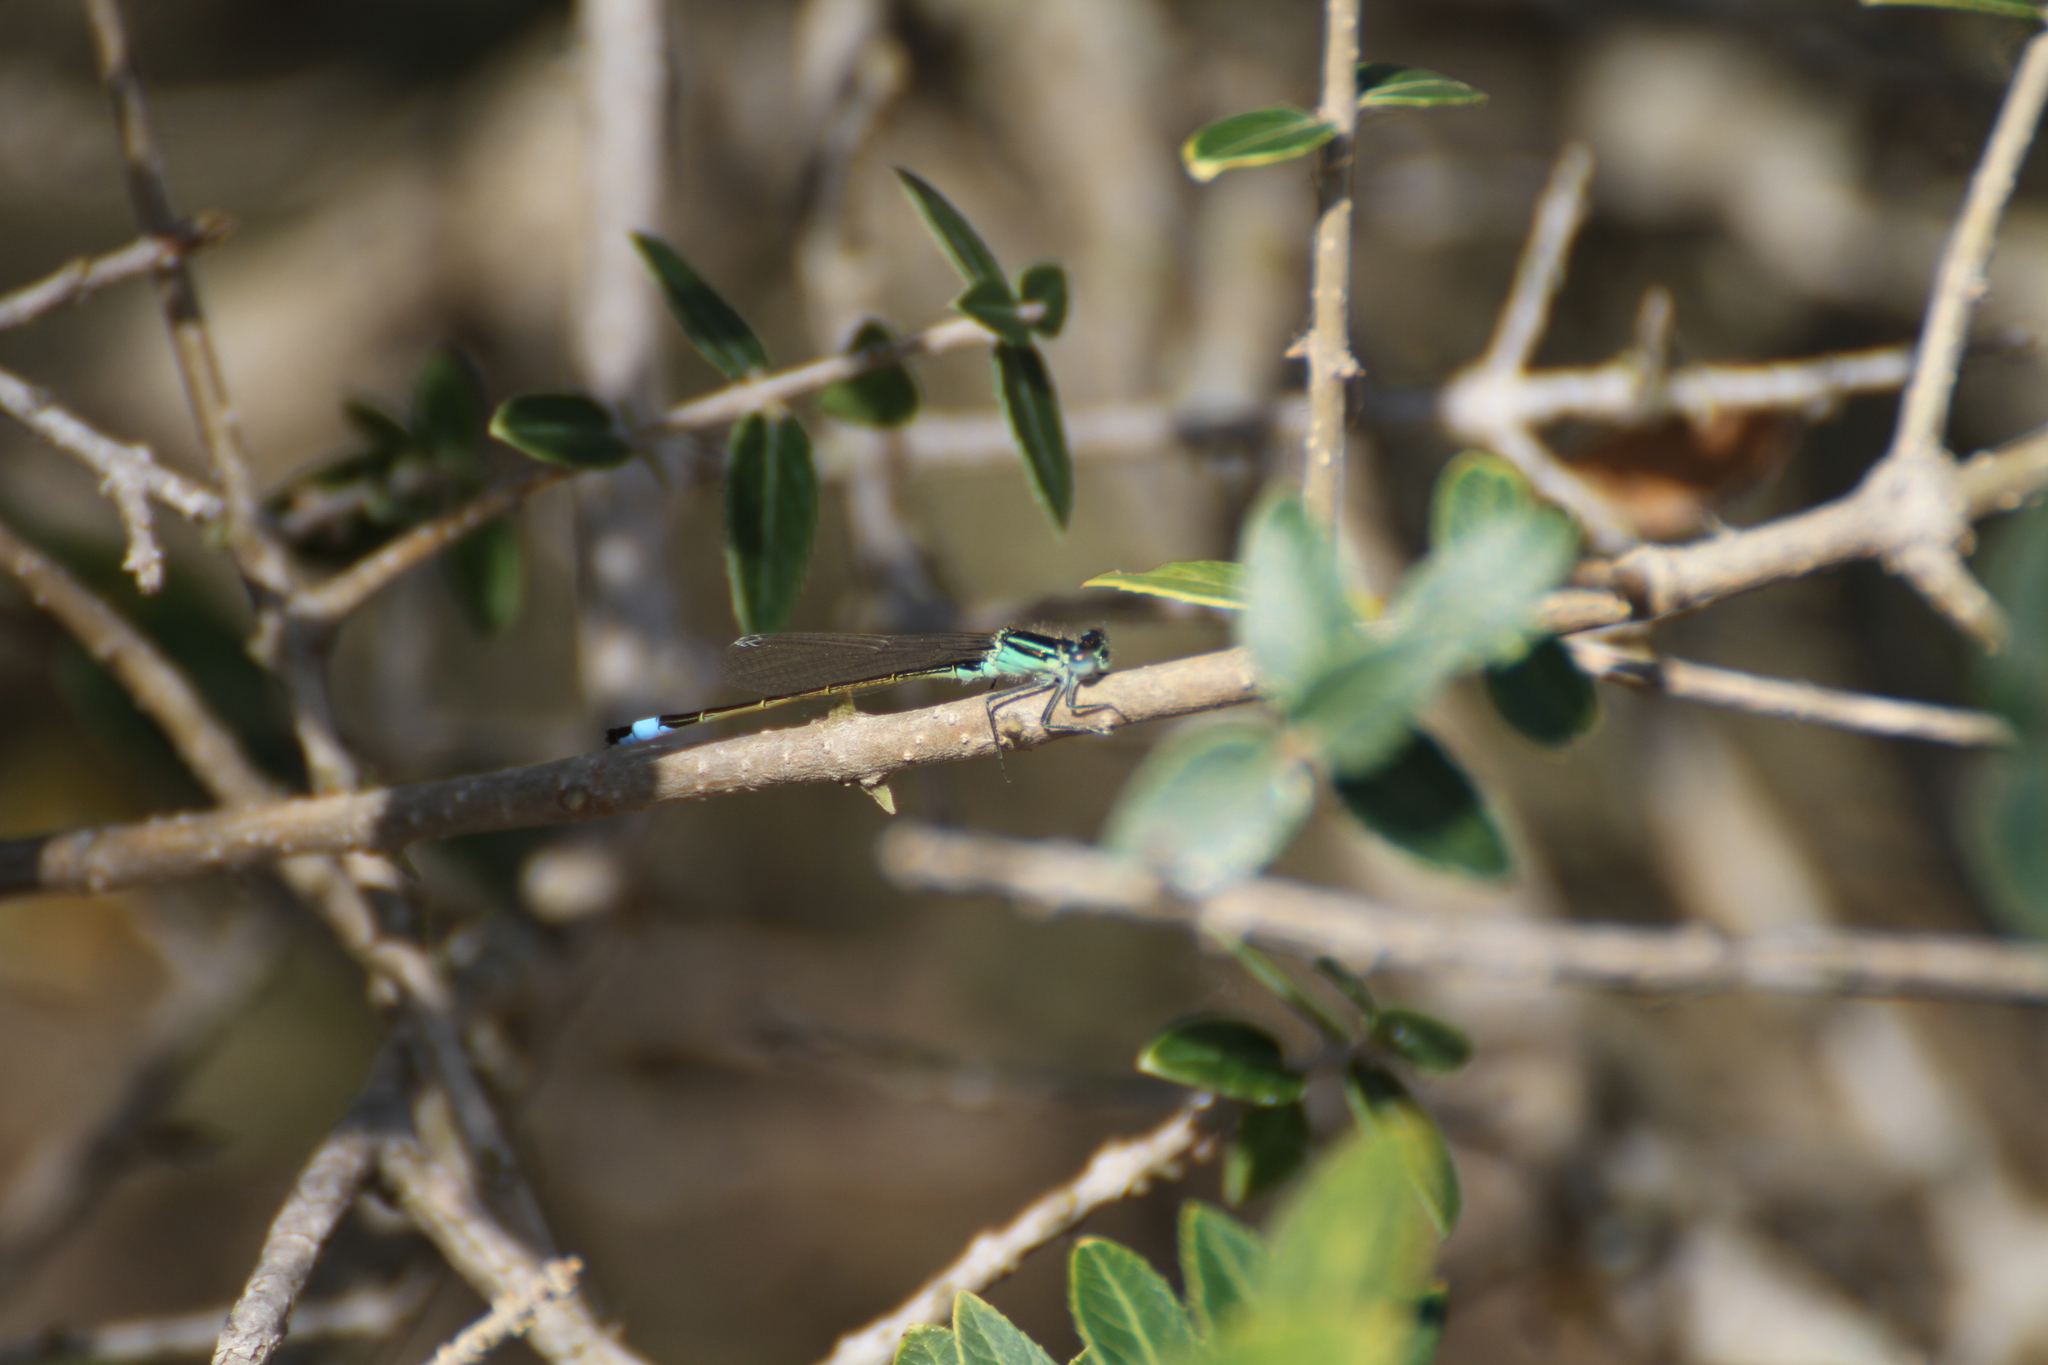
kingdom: Animalia
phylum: Arthropoda
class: Insecta
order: Odonata
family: Coenagrionidae
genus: Ischnura
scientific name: Ischnura elegans
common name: Blue-tailed damselfly
